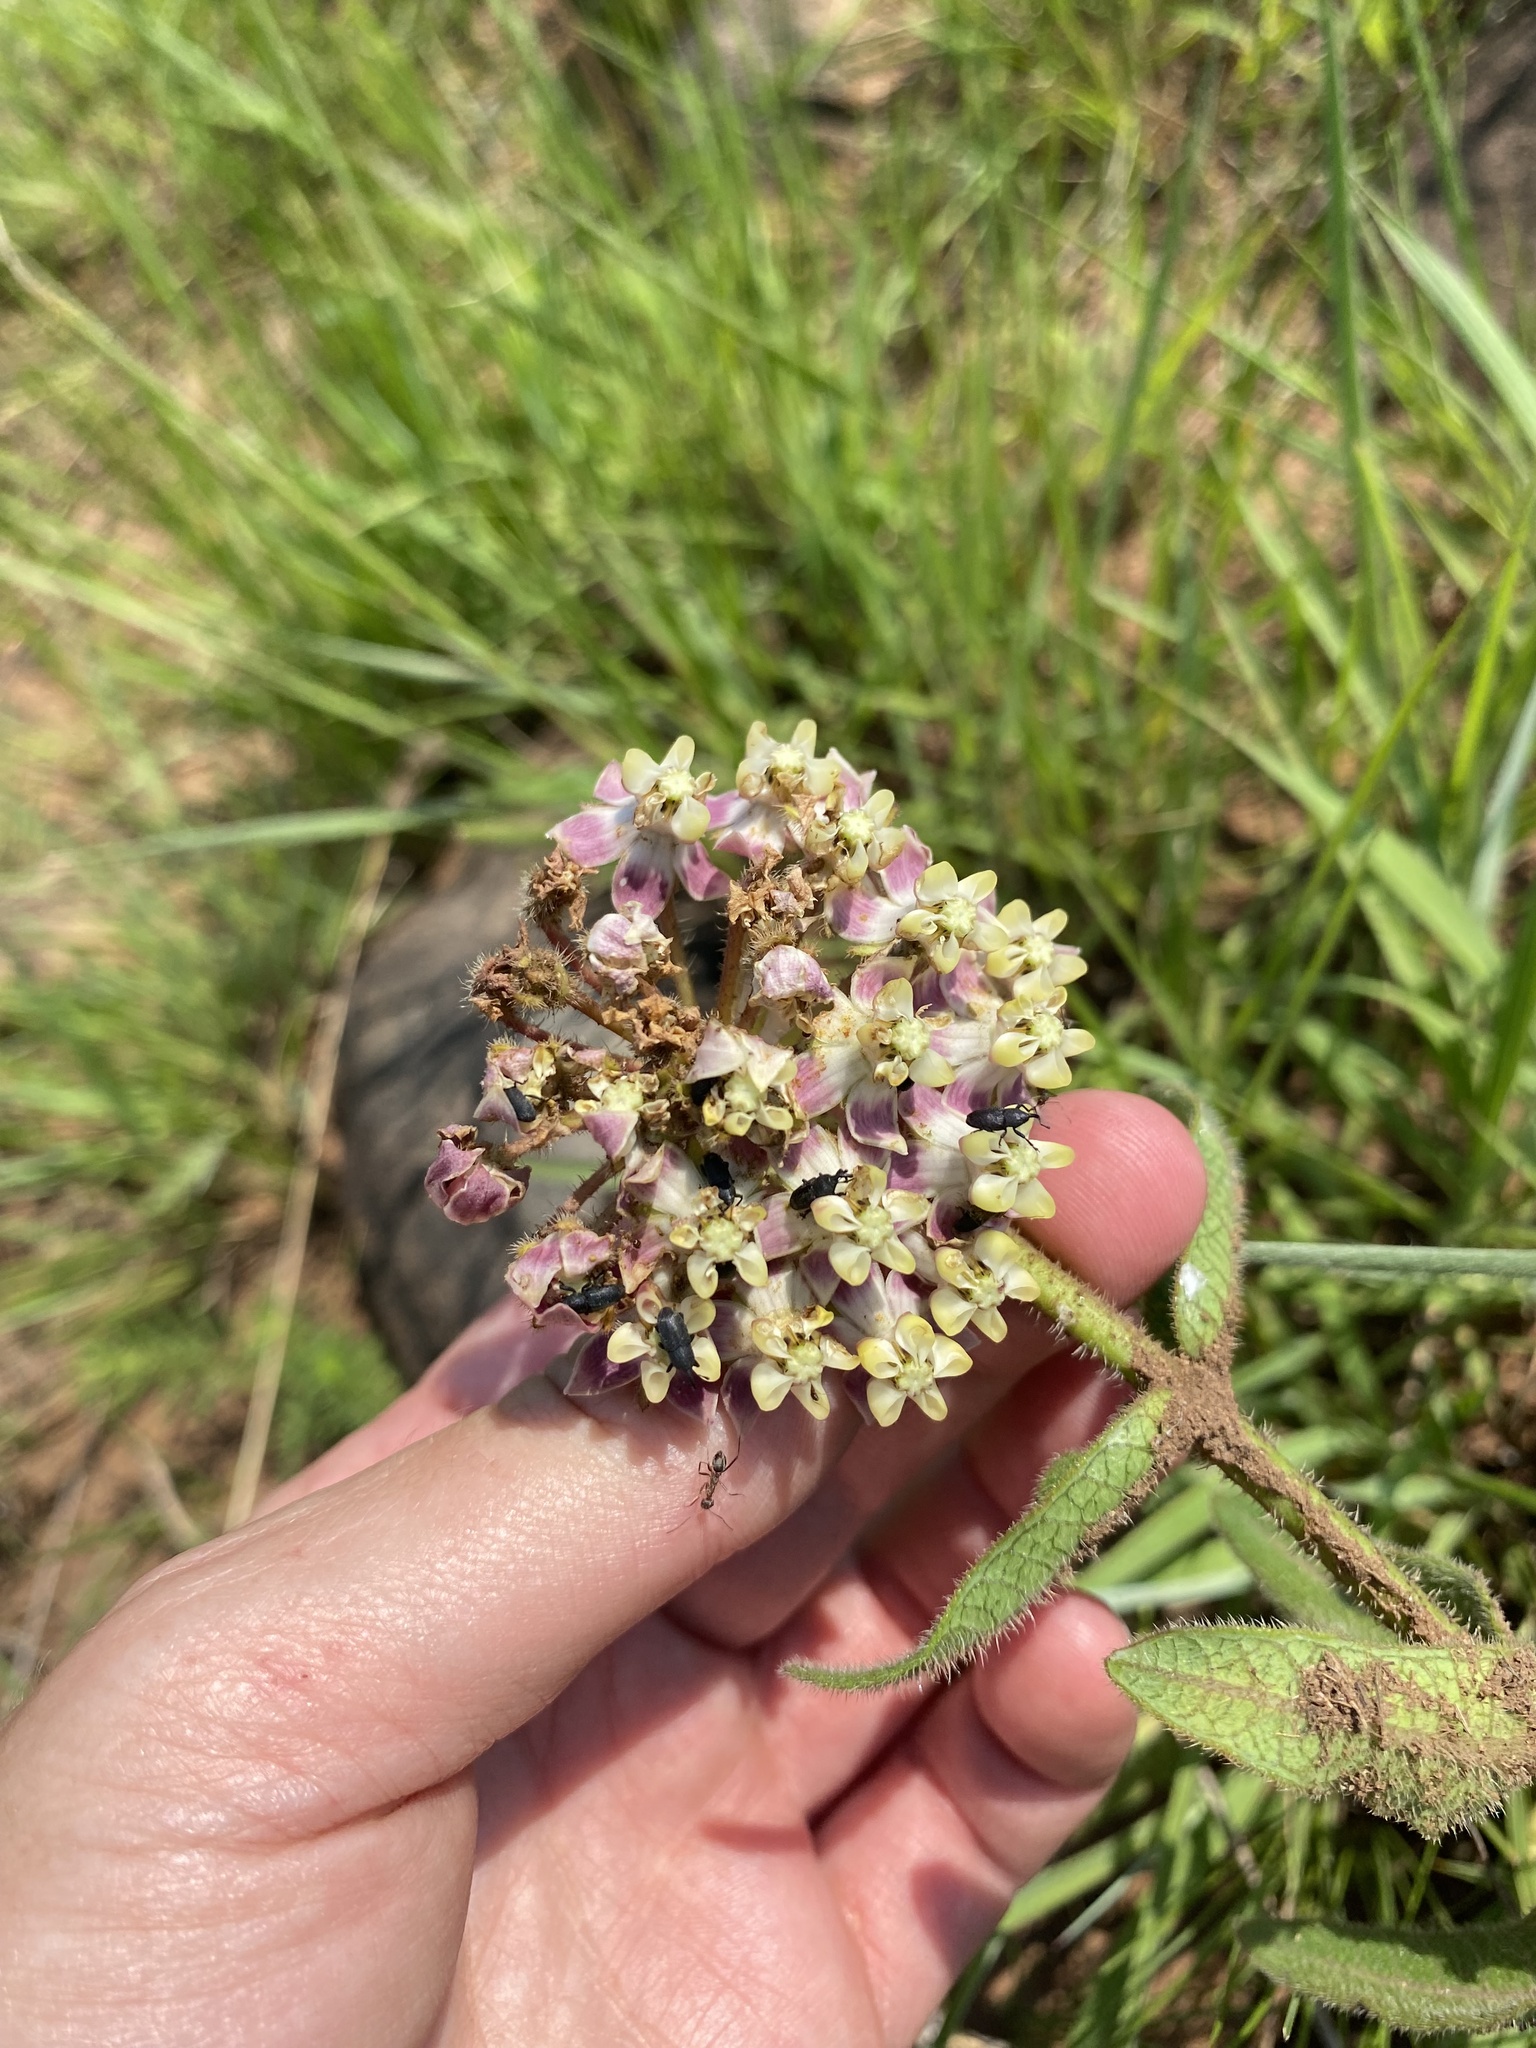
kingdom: Plantae
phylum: Tracheophyta
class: Magnoliopsida
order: Gentianales
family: Apocynaceae
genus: Asclepias
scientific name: Asclepias albens
